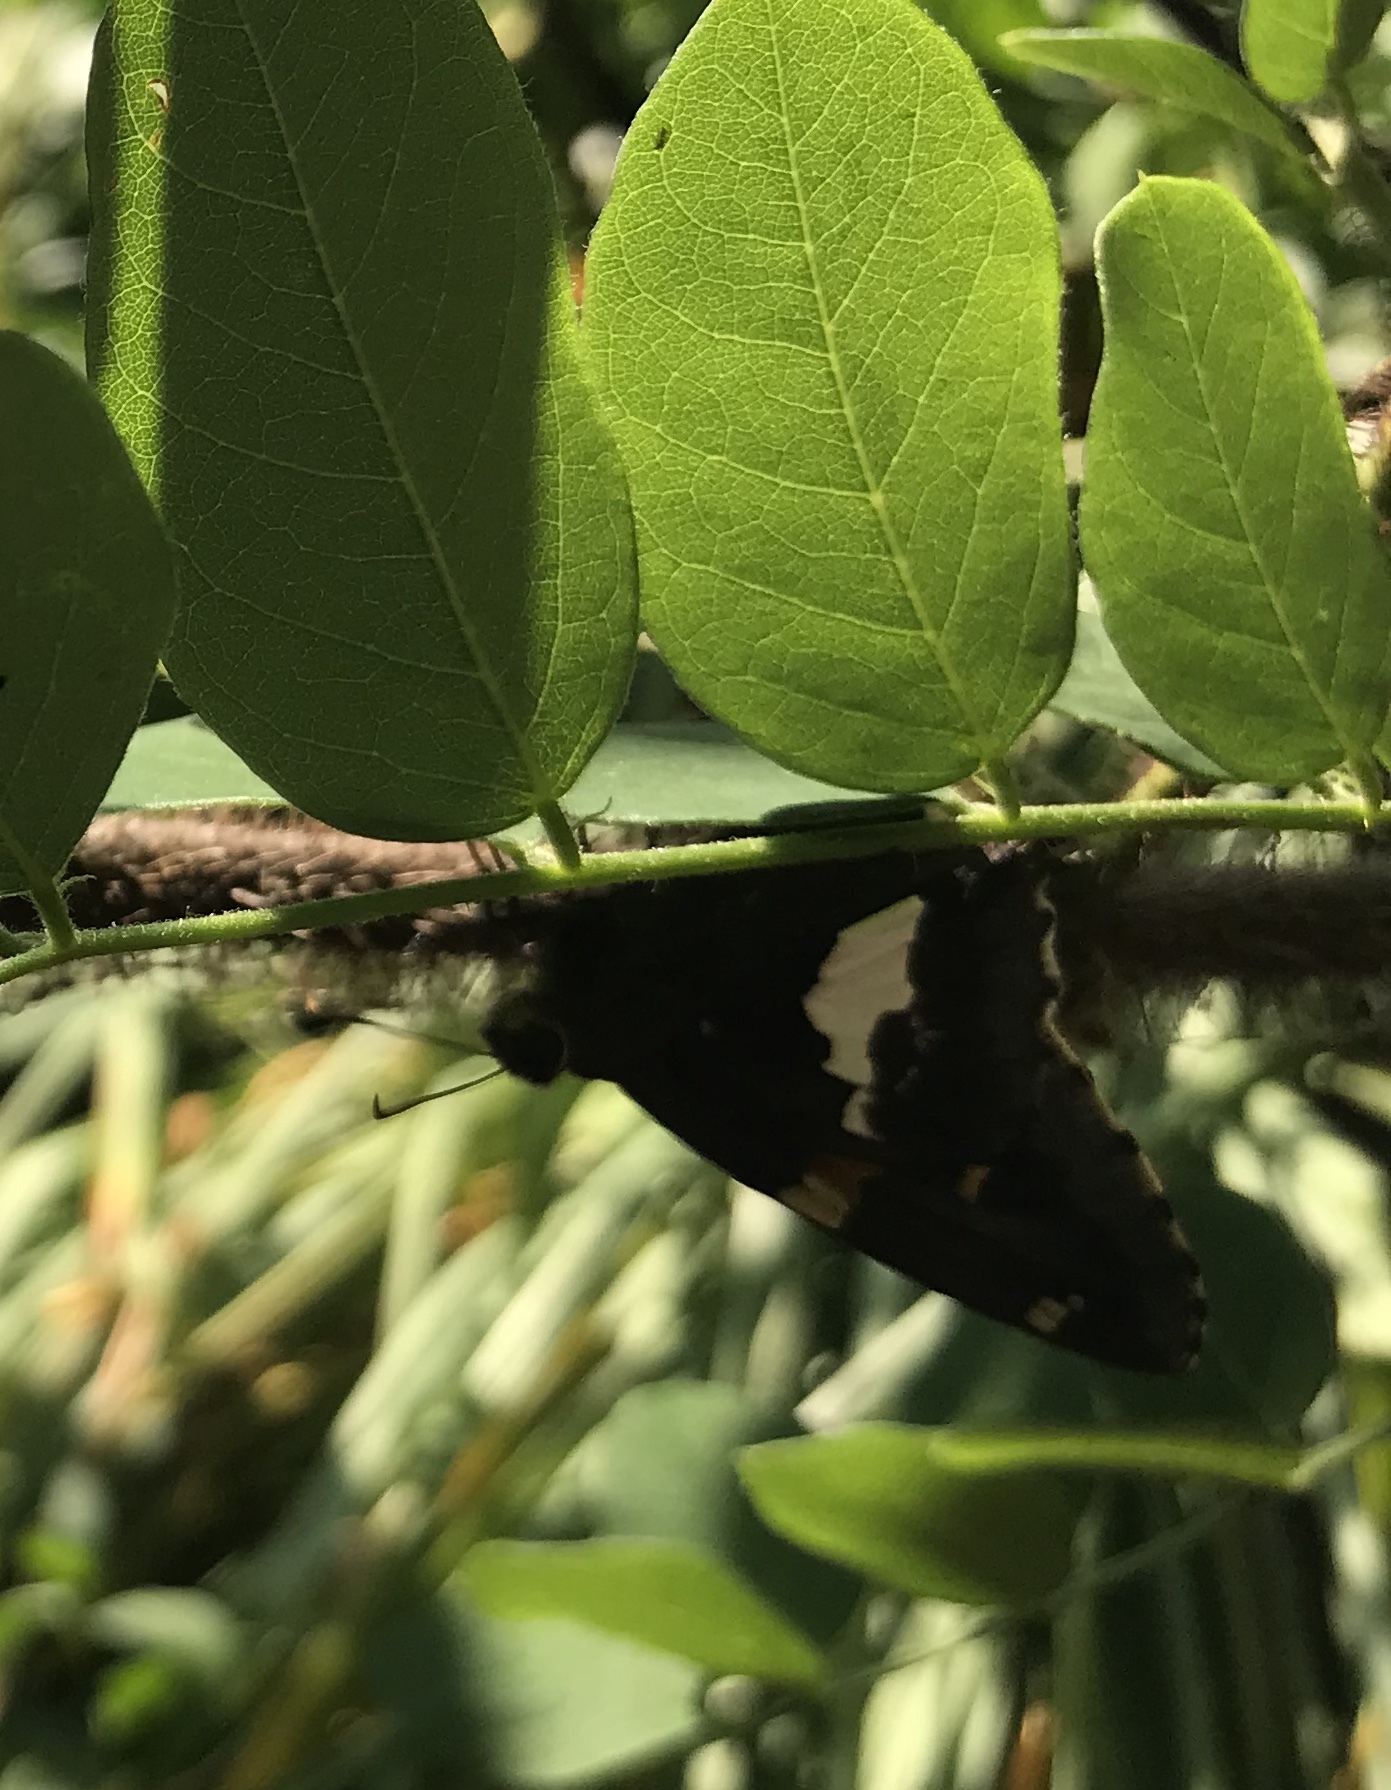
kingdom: Animalia
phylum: Arthropoda
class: Insecta
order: Lepidoptera
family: Hesperiidae
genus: Epargyreus
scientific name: Epargyreus clarus
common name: Silver-spotted skipper
